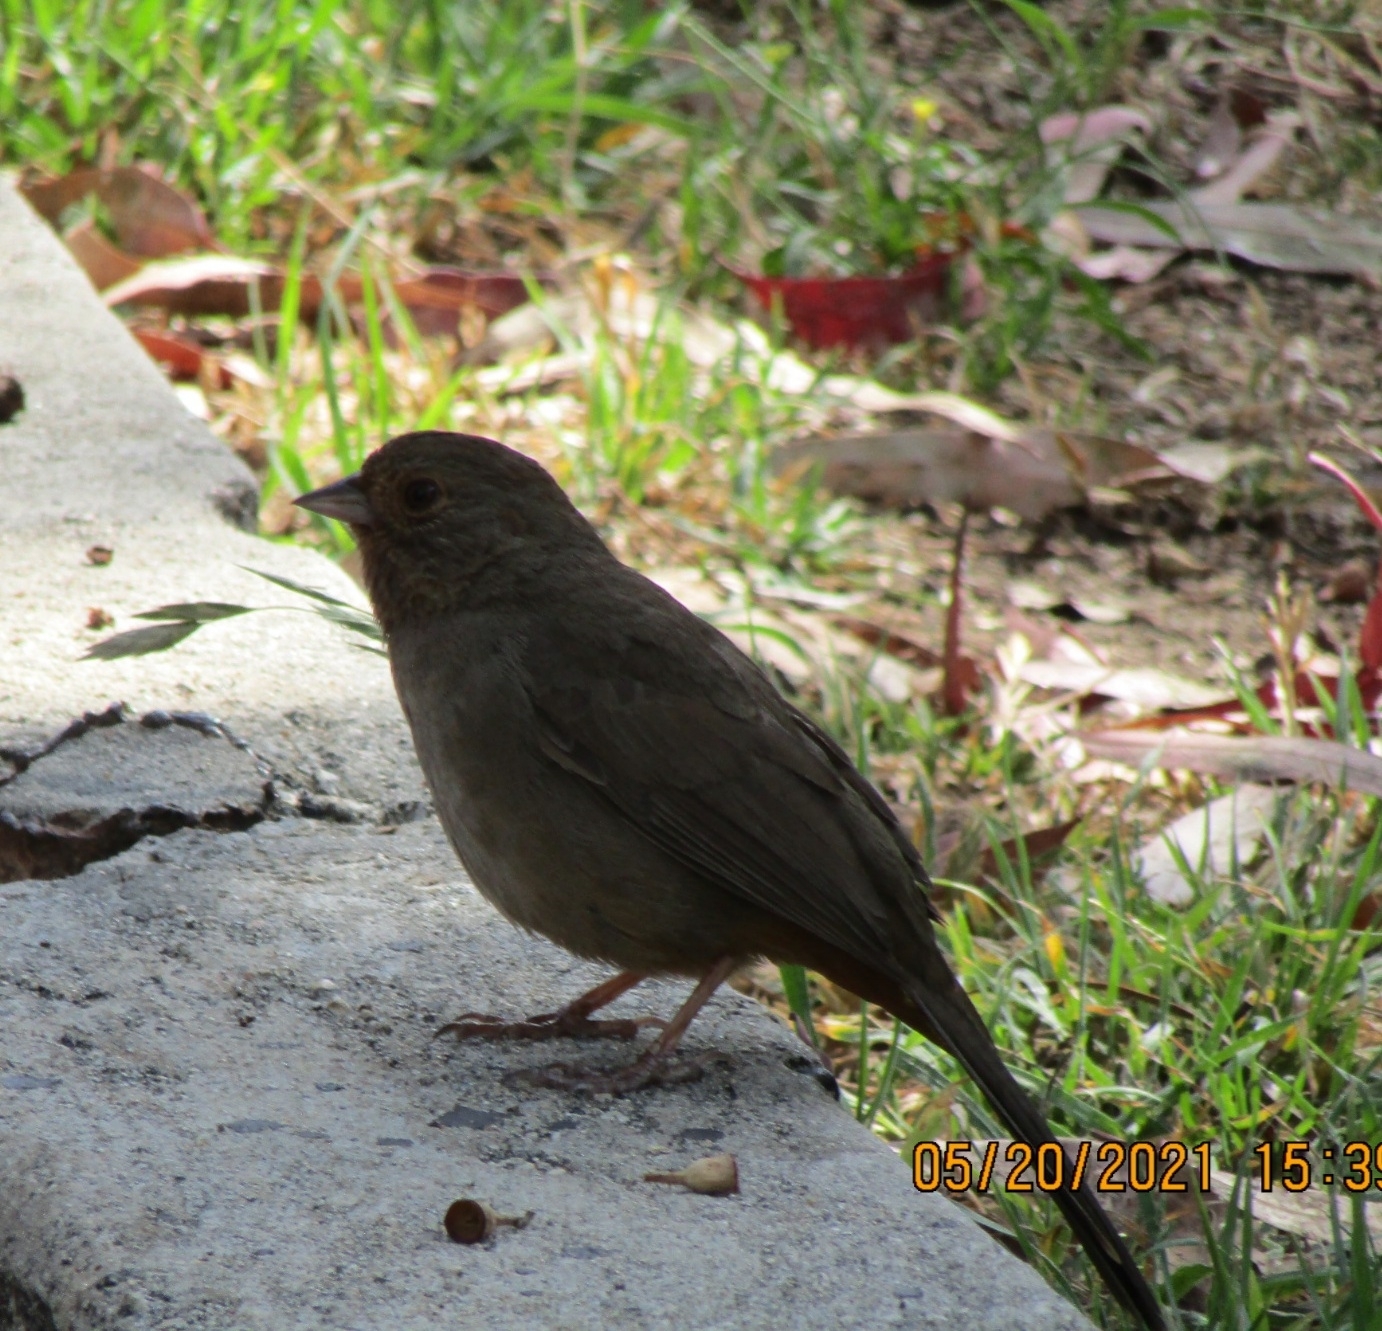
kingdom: Animalia
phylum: Chordata
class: Aves
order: Passeriformes
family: Passerellidae
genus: Melozone
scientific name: Melozone crissalis
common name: California towhee
